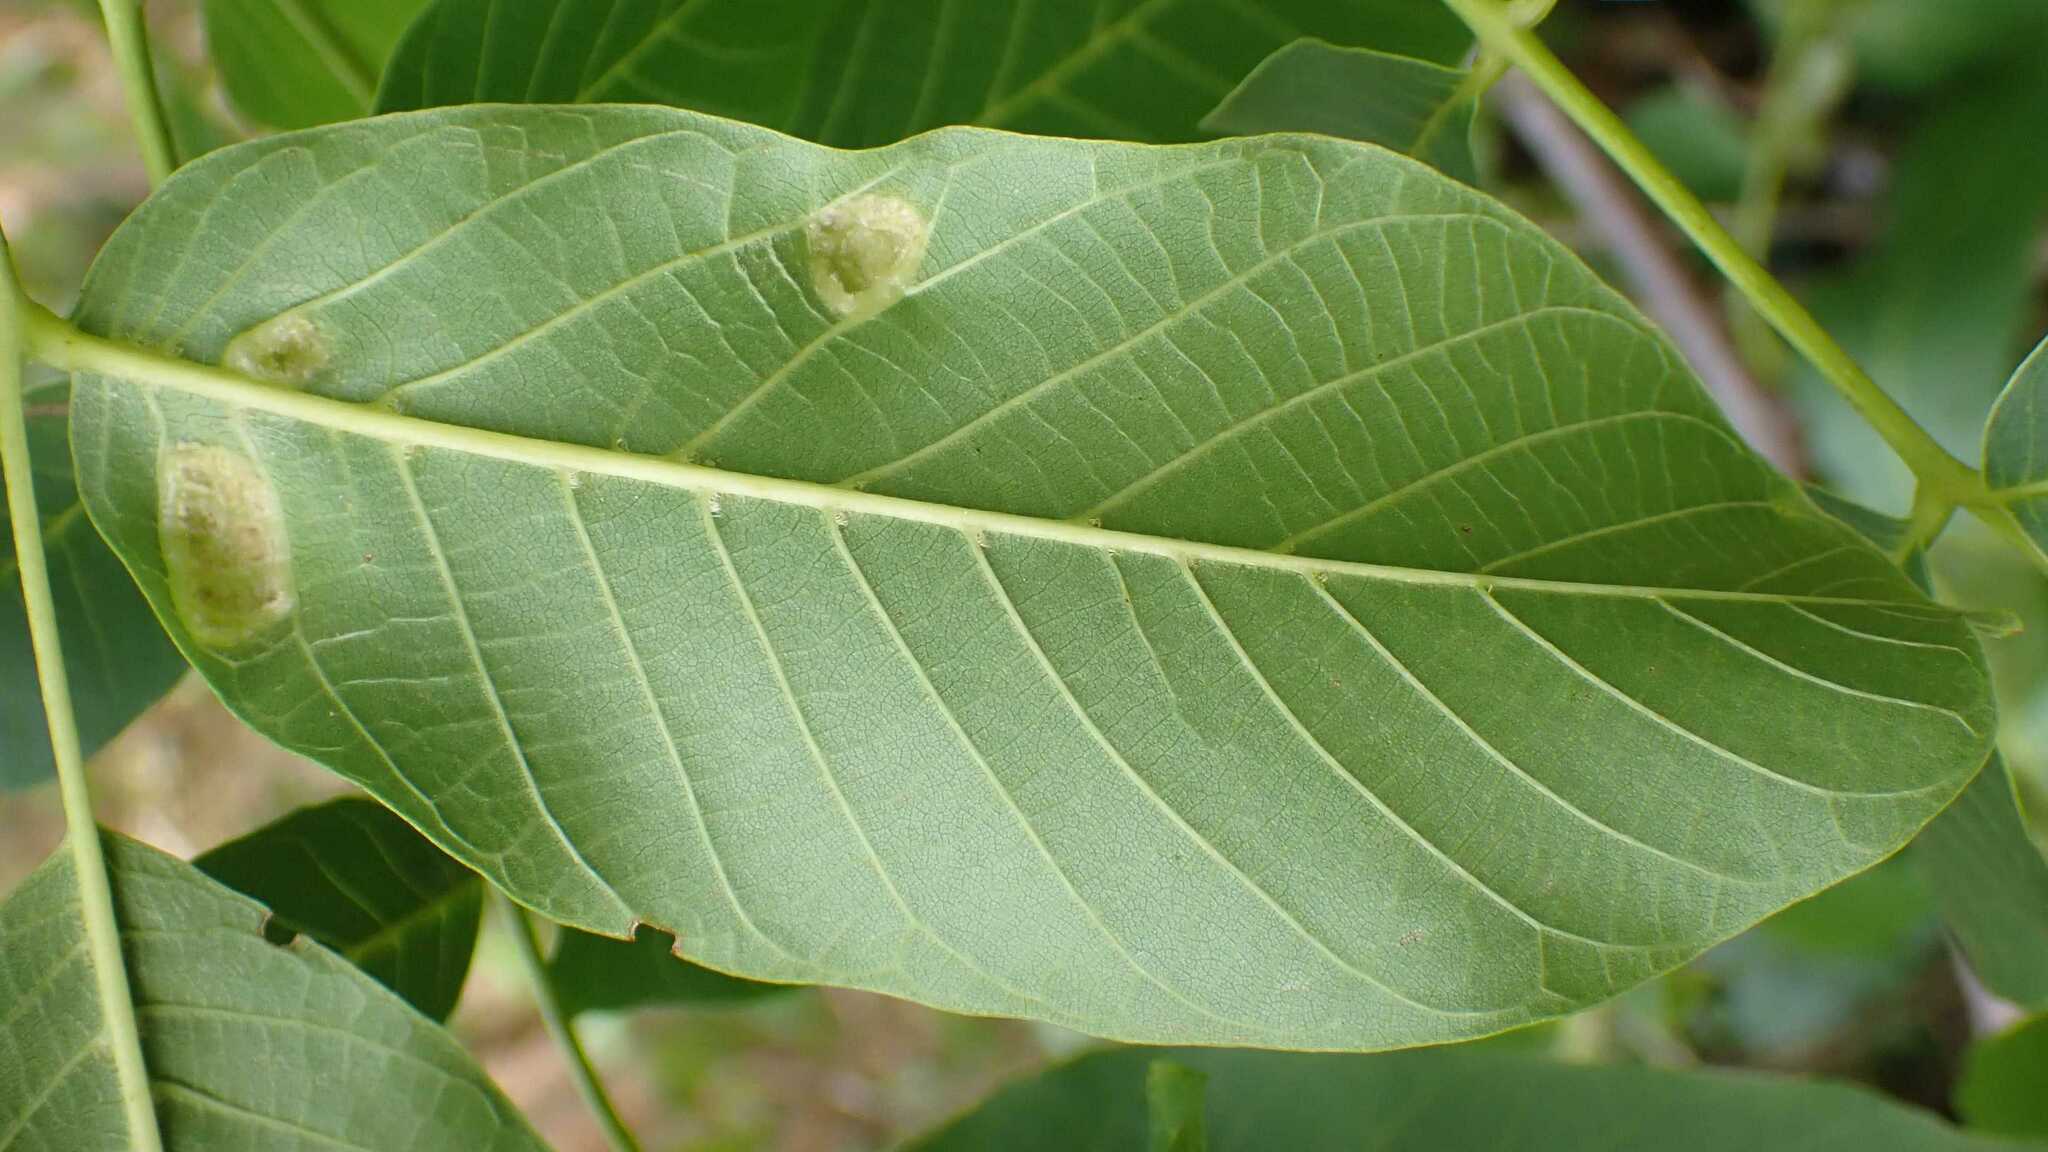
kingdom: Animalia
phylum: Arthropoda
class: Arachnida
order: Trombidiformes
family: Eriophyidae
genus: Aceria
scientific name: Aceria erinea
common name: Persian walnut erineum mite
